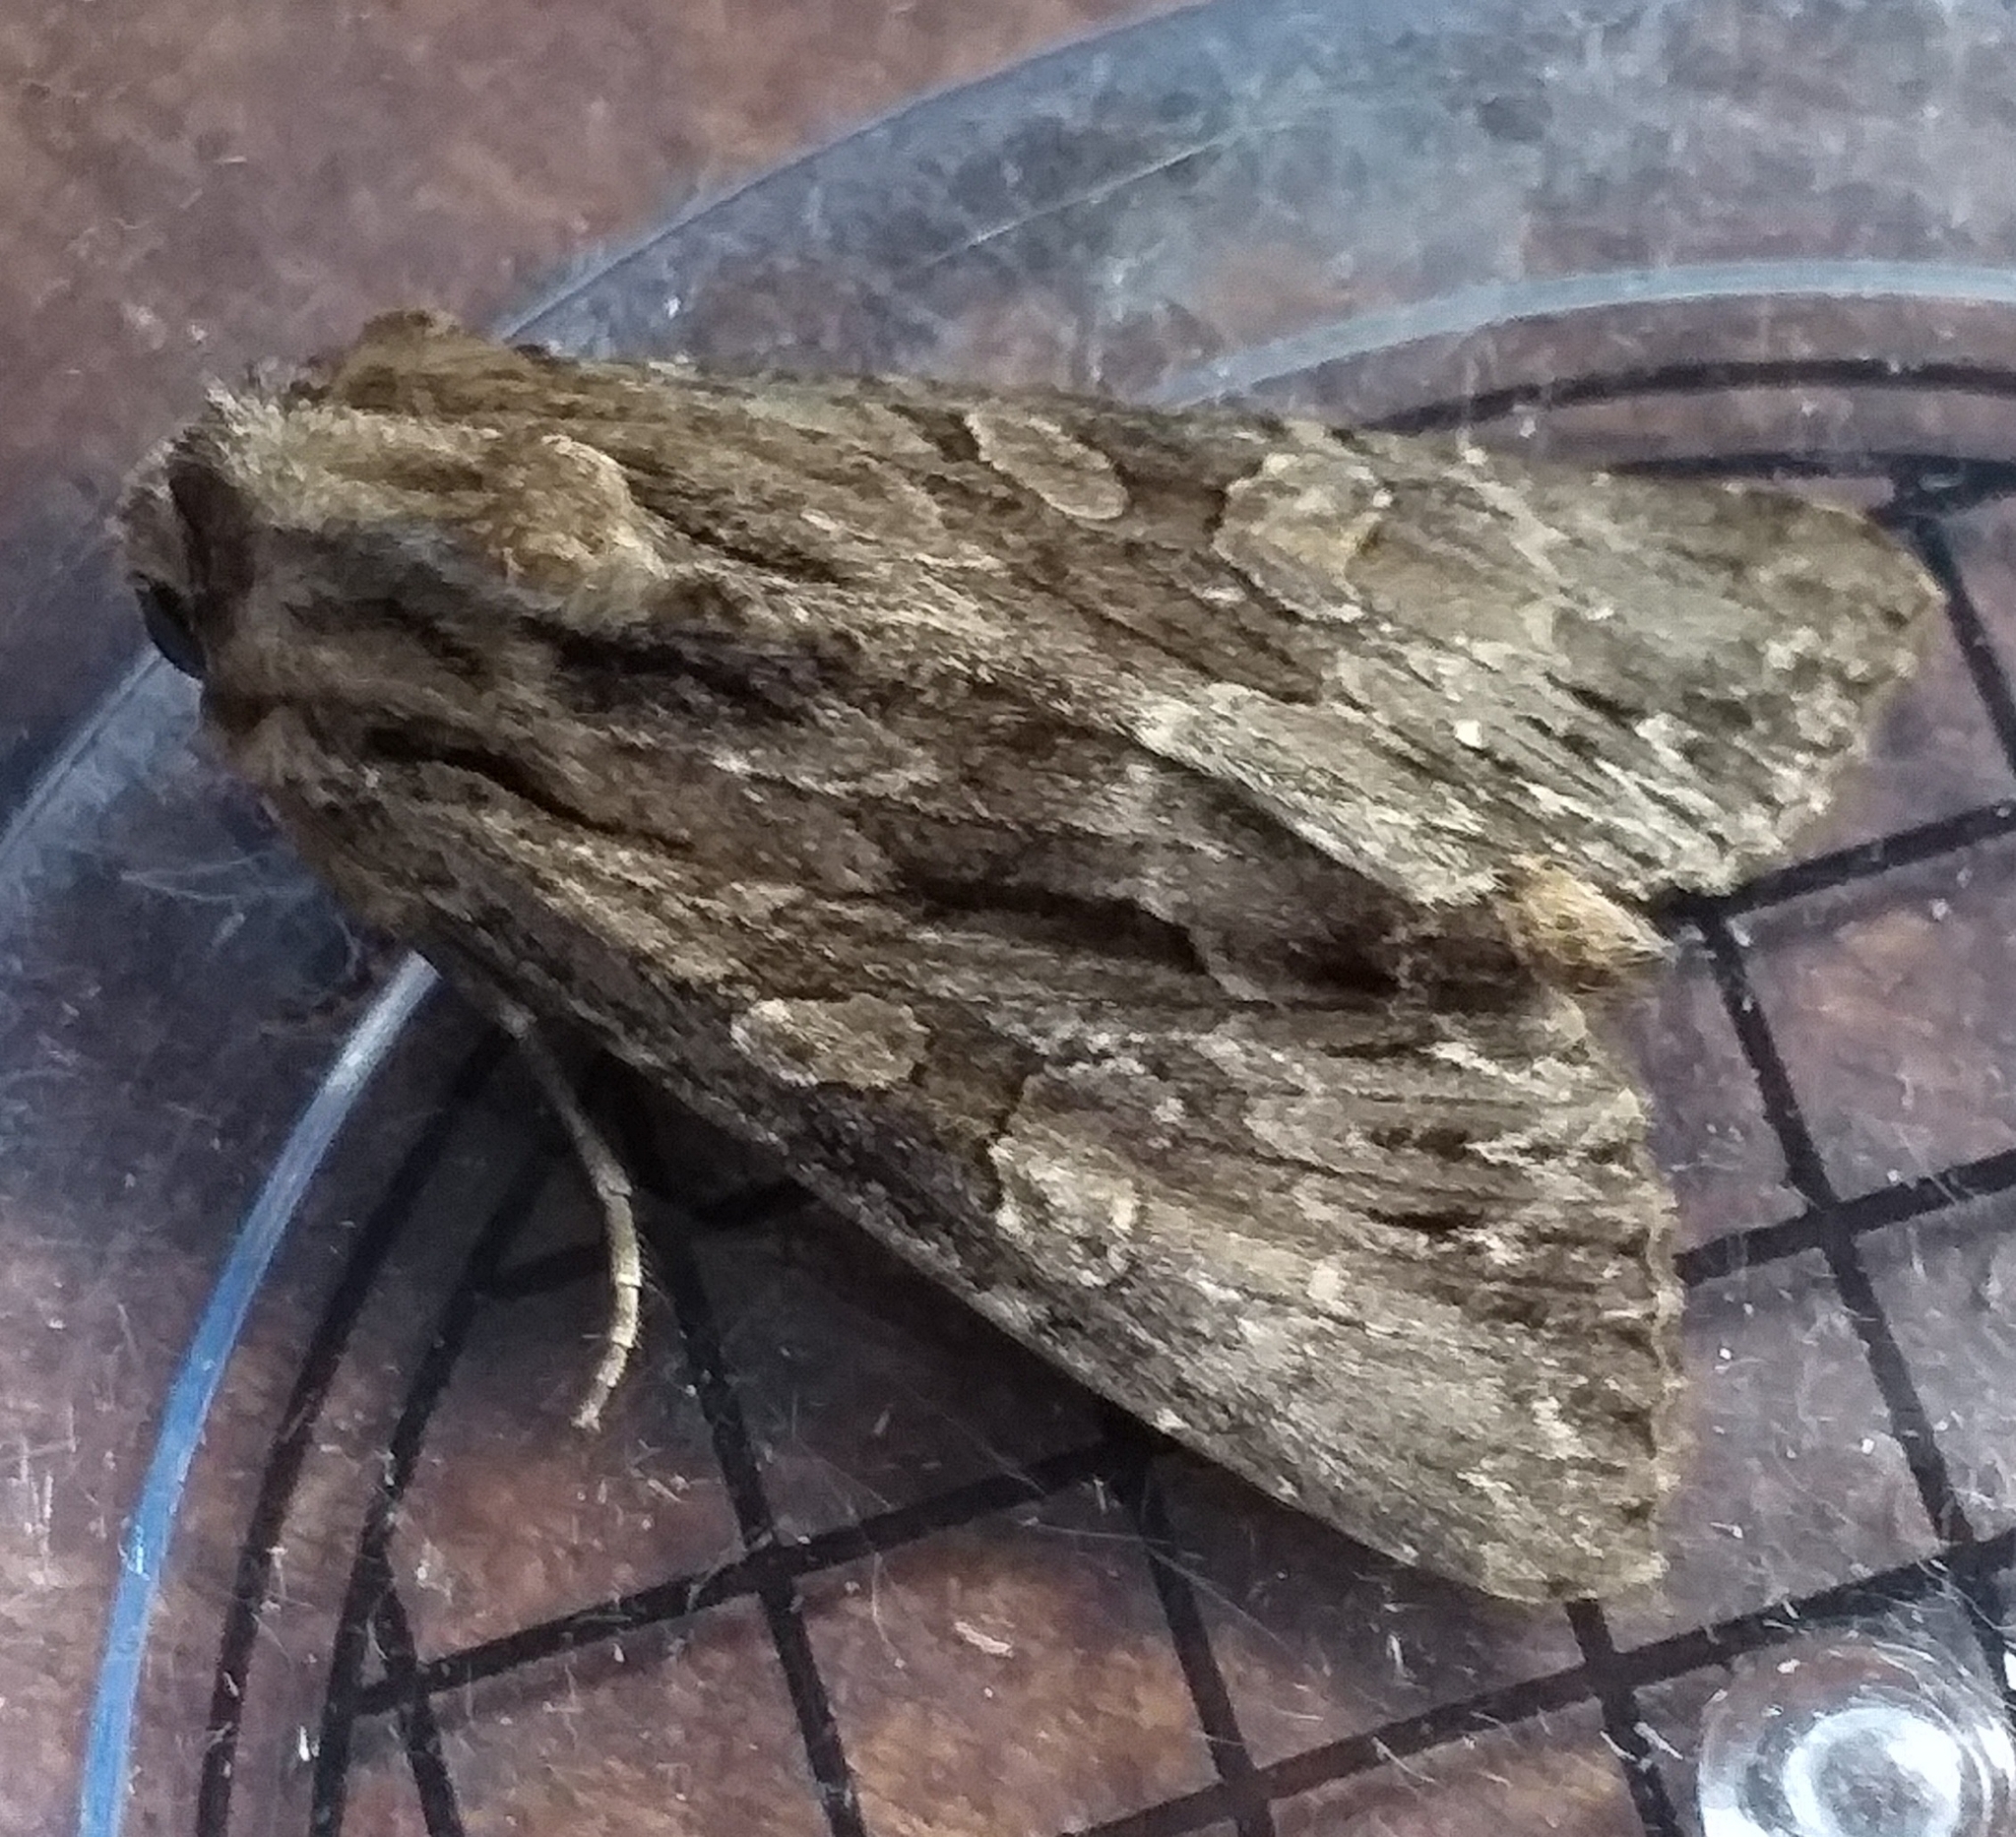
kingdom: Animalia
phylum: Arthropoda
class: Insecta
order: Lepidoptera
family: Noctuidae
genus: Apamea
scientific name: Apamea monoglypha
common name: Dark arches
